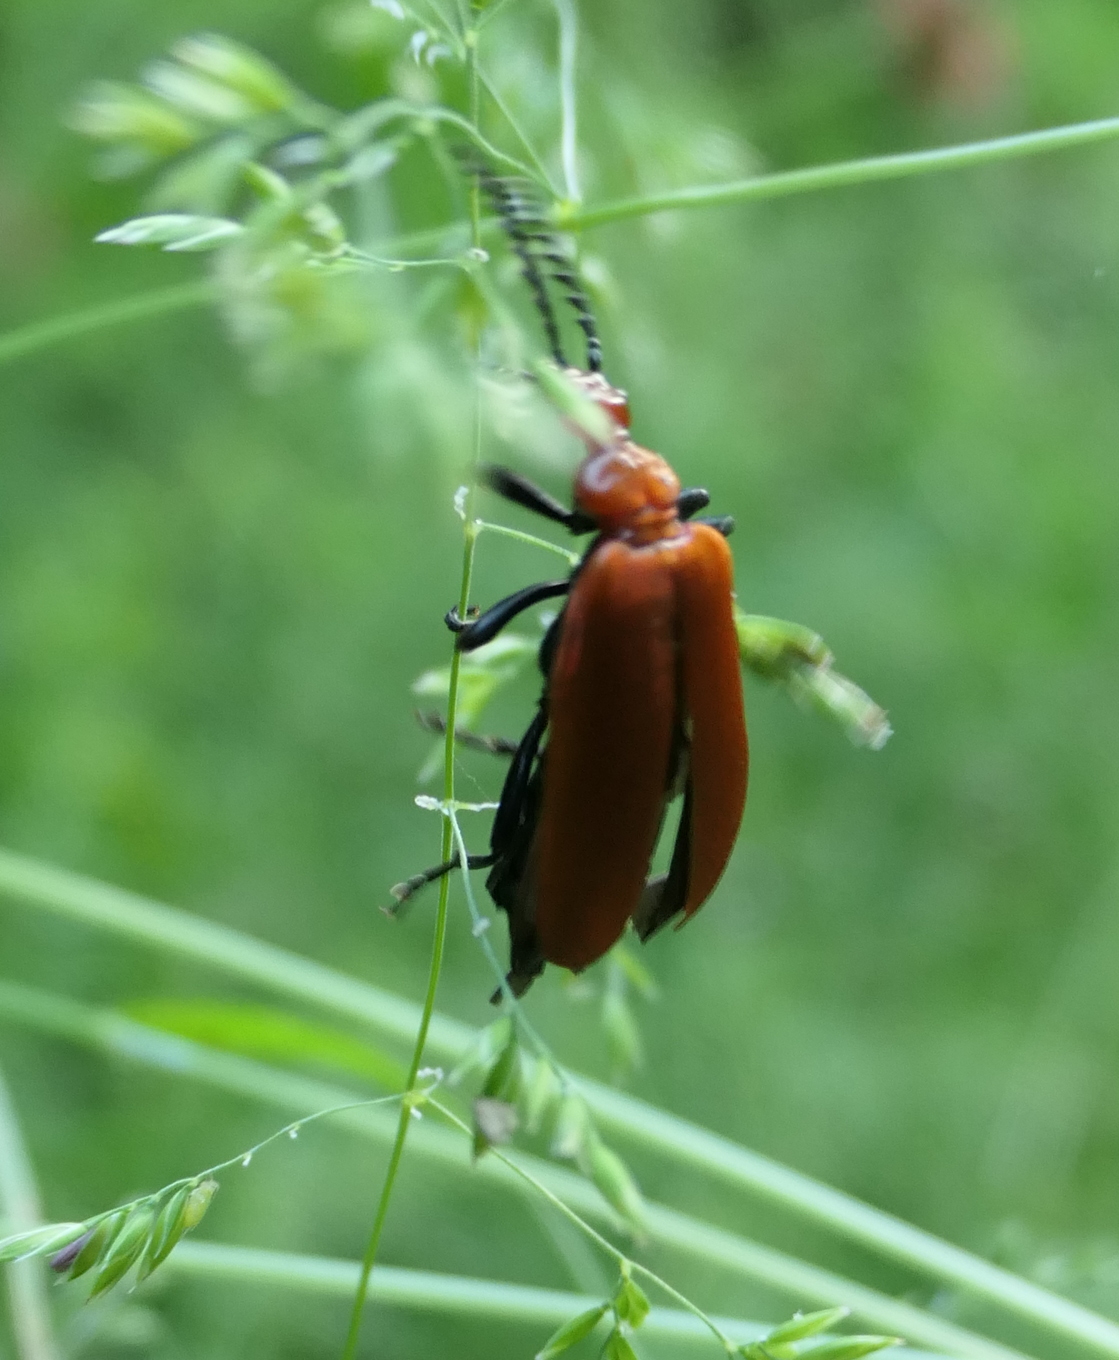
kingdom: Animalia
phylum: Arthropoda
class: Insecta
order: Coleoptera
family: Pyrochroidae
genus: Pyrochroa
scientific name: Pyrochroa serraticornis
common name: Red-headed cardinal beetle
